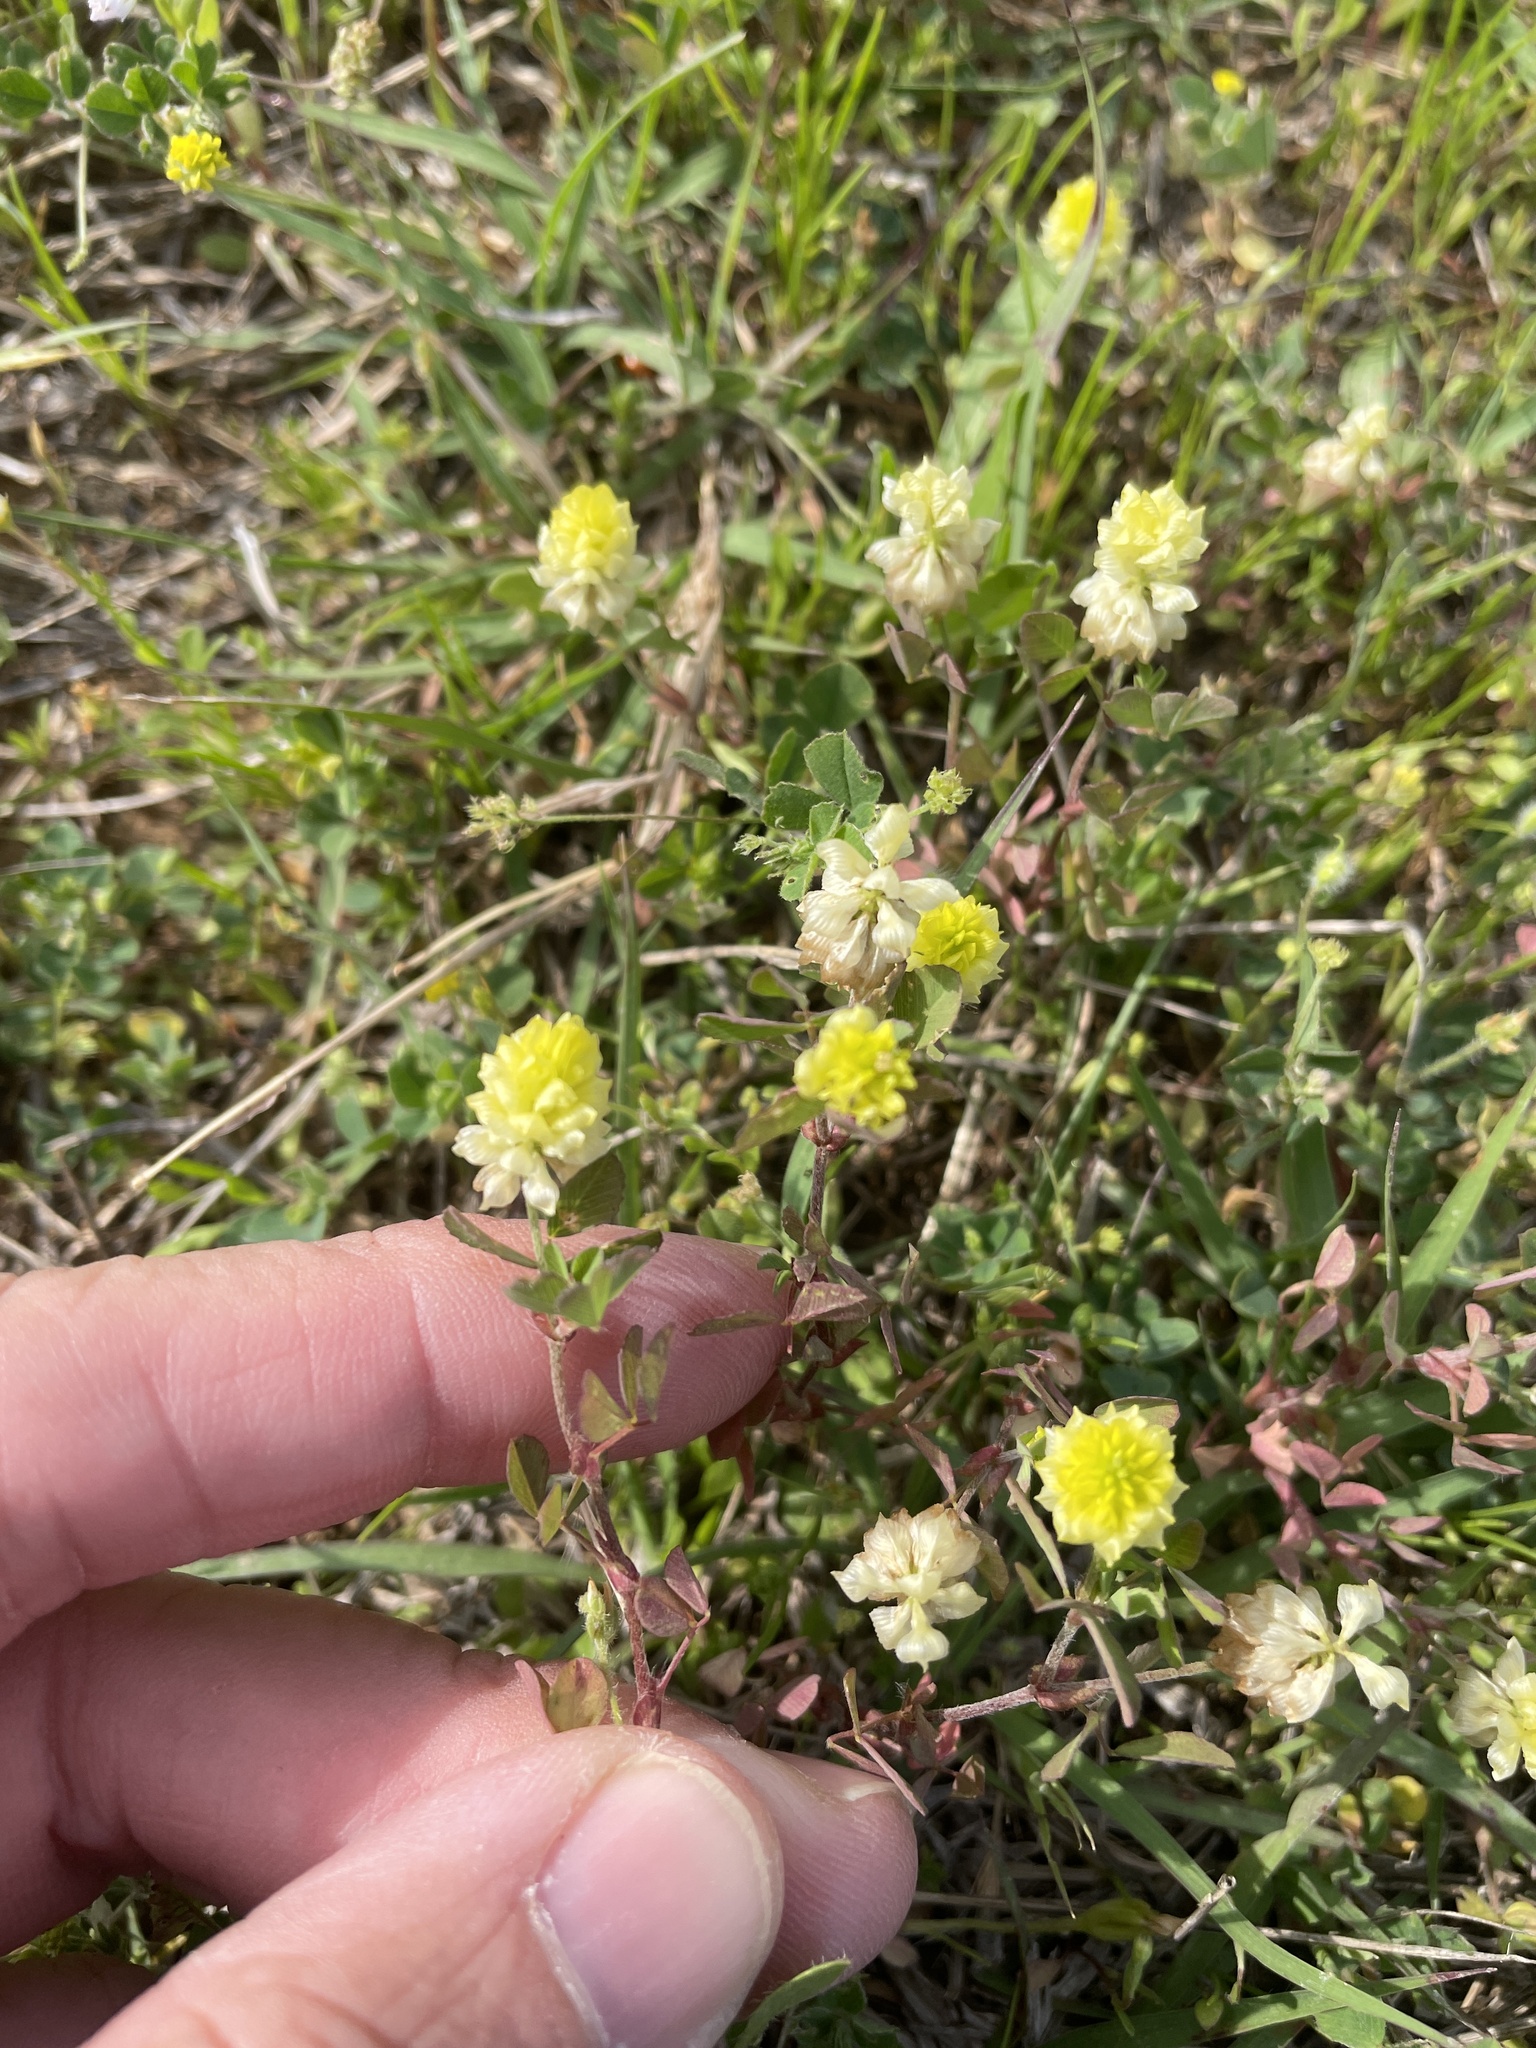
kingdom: Plantae
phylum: Tracheophyta
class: Magnoliopsida
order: Fabales
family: Fabaceae
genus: Trifolium
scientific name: Trifolium campestre
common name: Field clover
